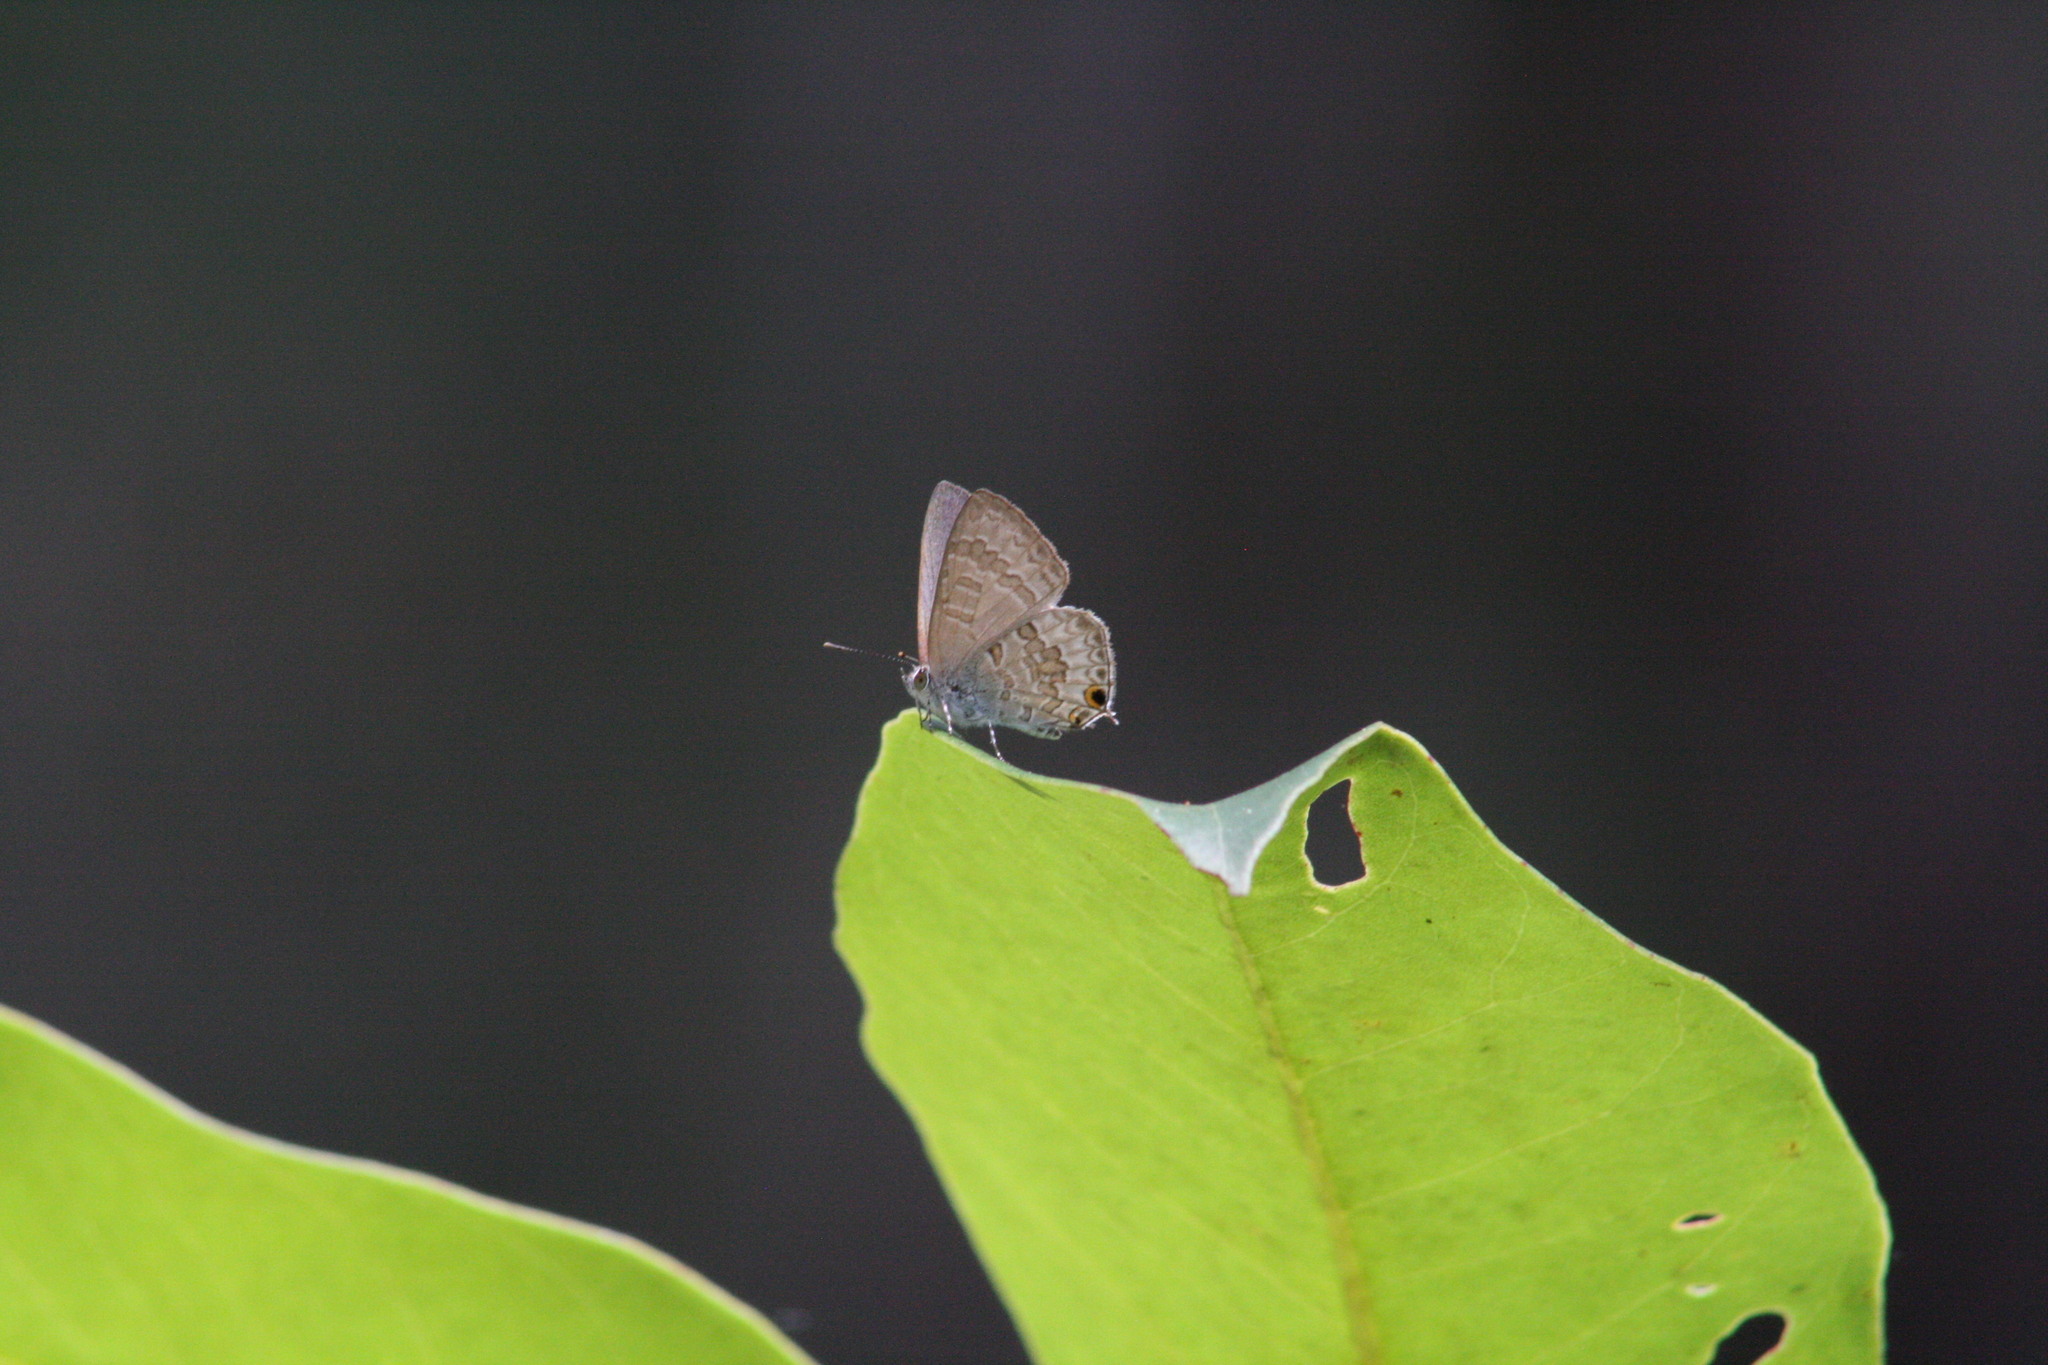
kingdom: Animalia
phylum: Arthropoda
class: Insecta
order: Lepidoptera
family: Lycaenidae
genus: Catopyrops
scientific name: Catopyrops florinda
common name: Speckled line-blue
